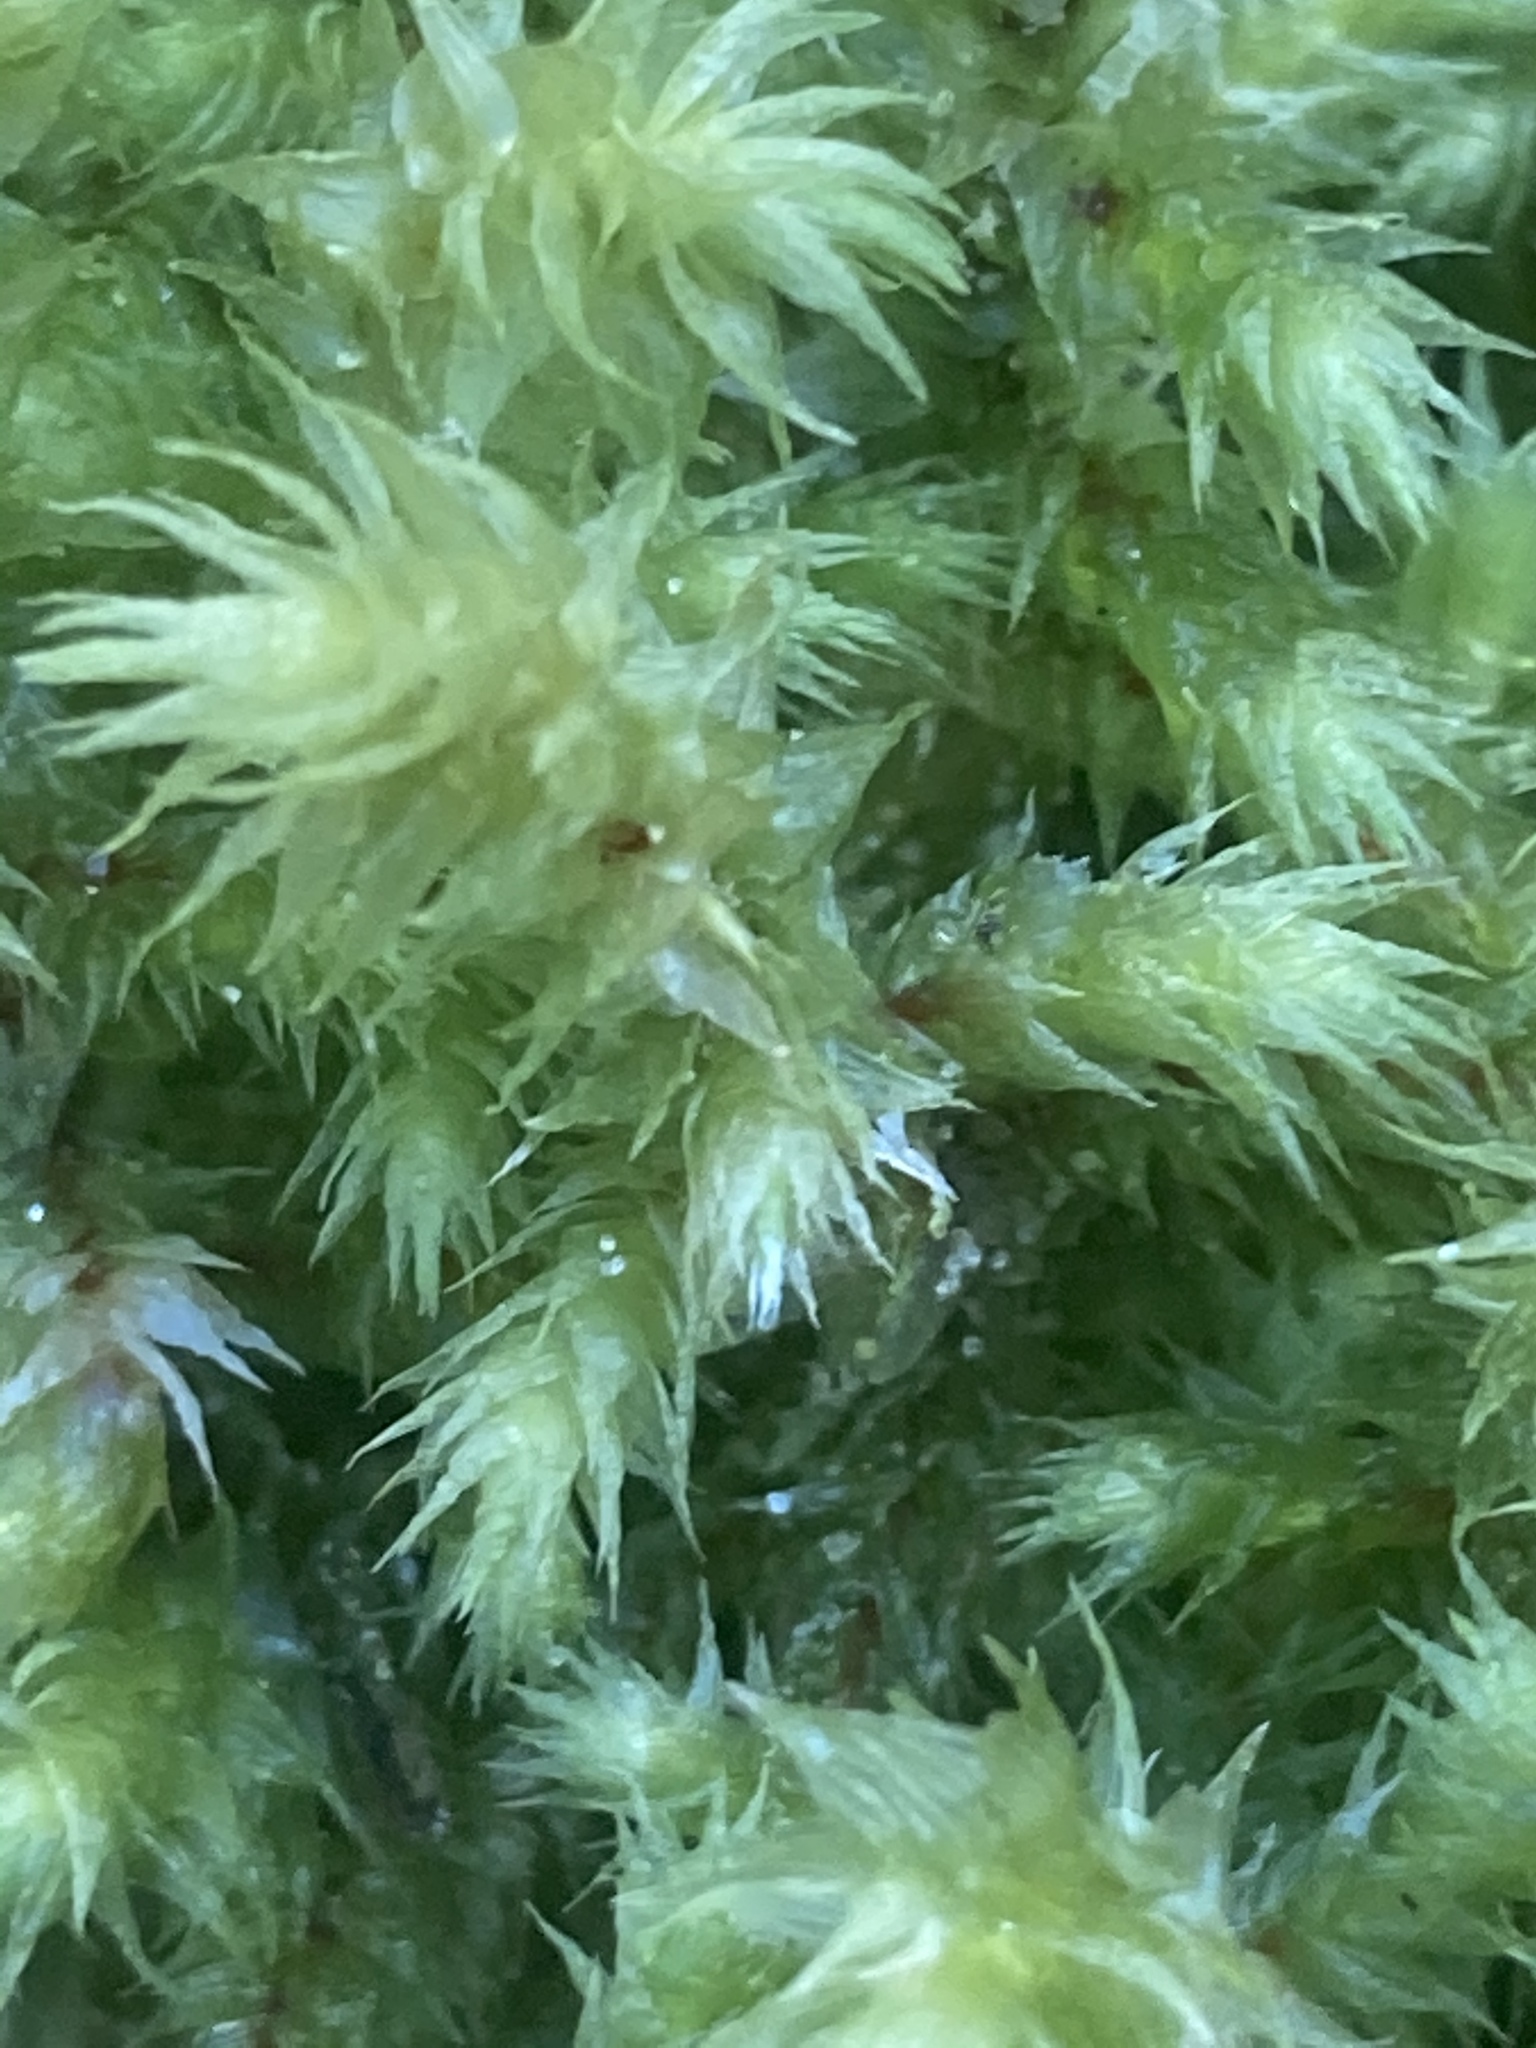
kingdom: Plantae
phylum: Bryophyta
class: Bryopsida
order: Hypnales
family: Hylocomiaceae
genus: Hylocomiadelphus
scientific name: Hylocomiadelphus triquetrus
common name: Rough goose neck moss
